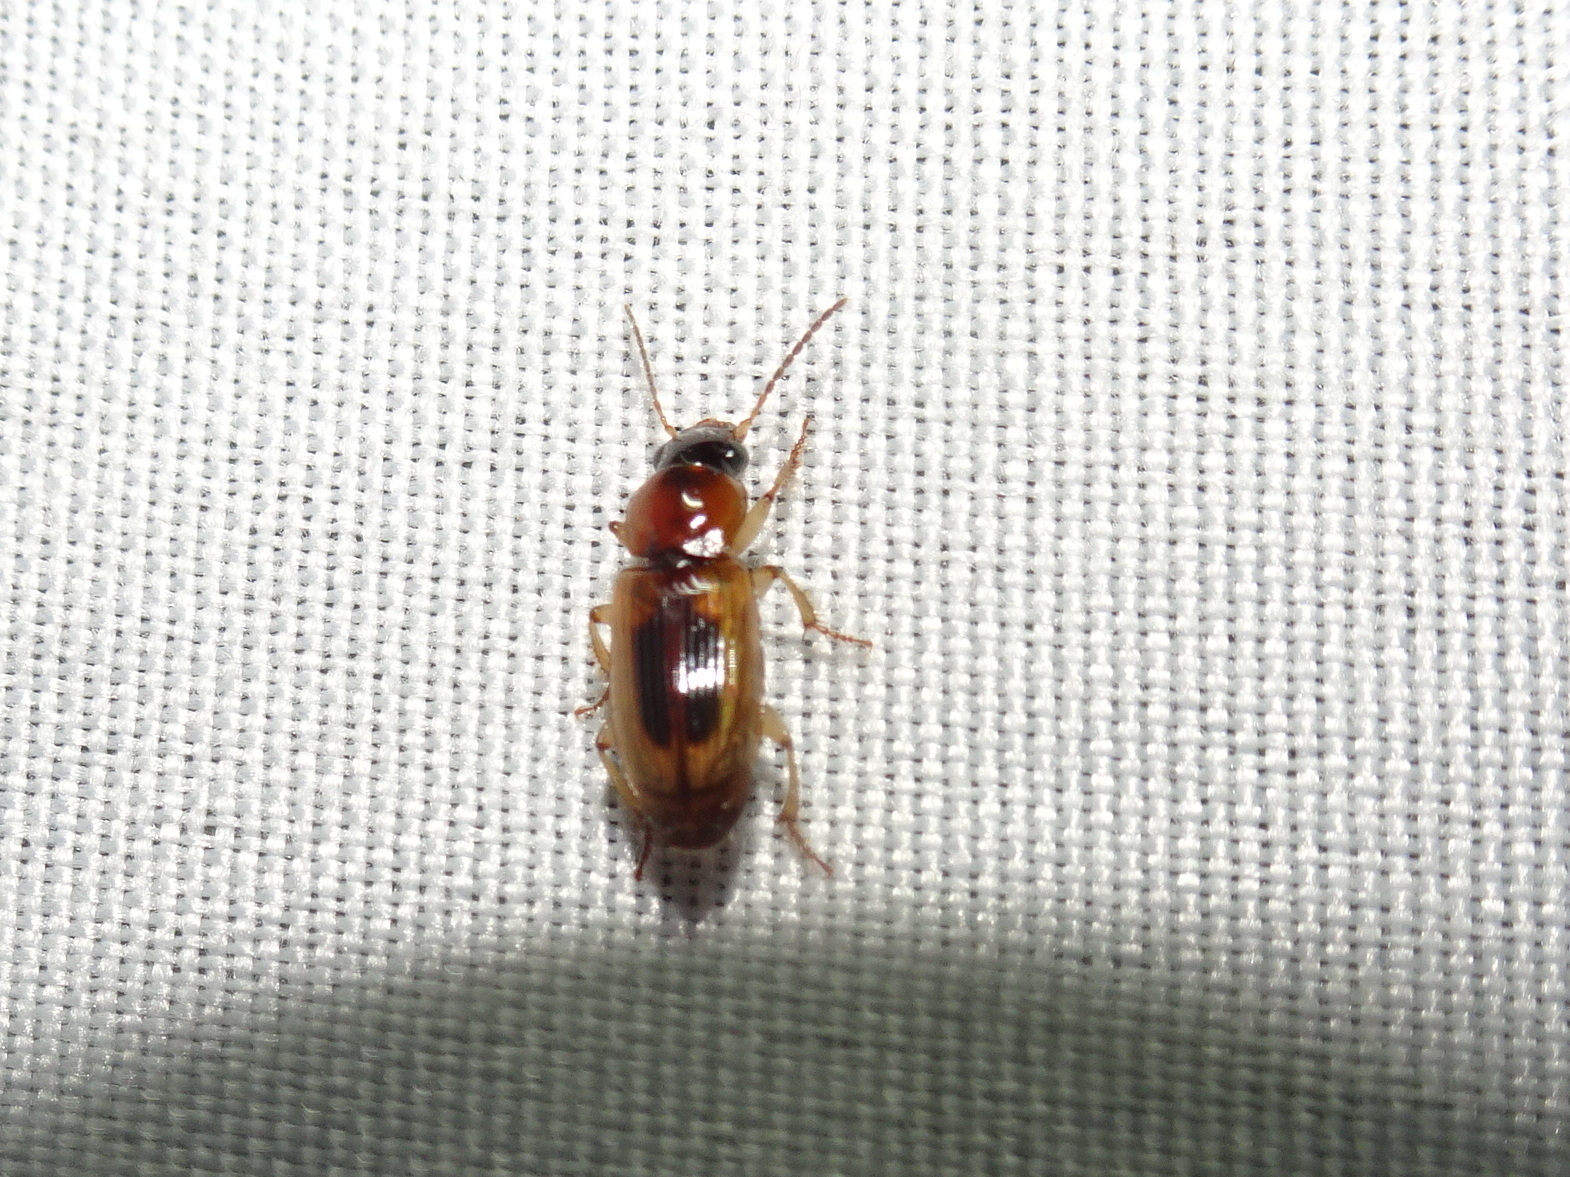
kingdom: Animalia
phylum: Arthropoda
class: Insecta
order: Coleoptera
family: Carabidae
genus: Stenolophus
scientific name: Stenolophus lecontei
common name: Leconte's seedcorn beetle
